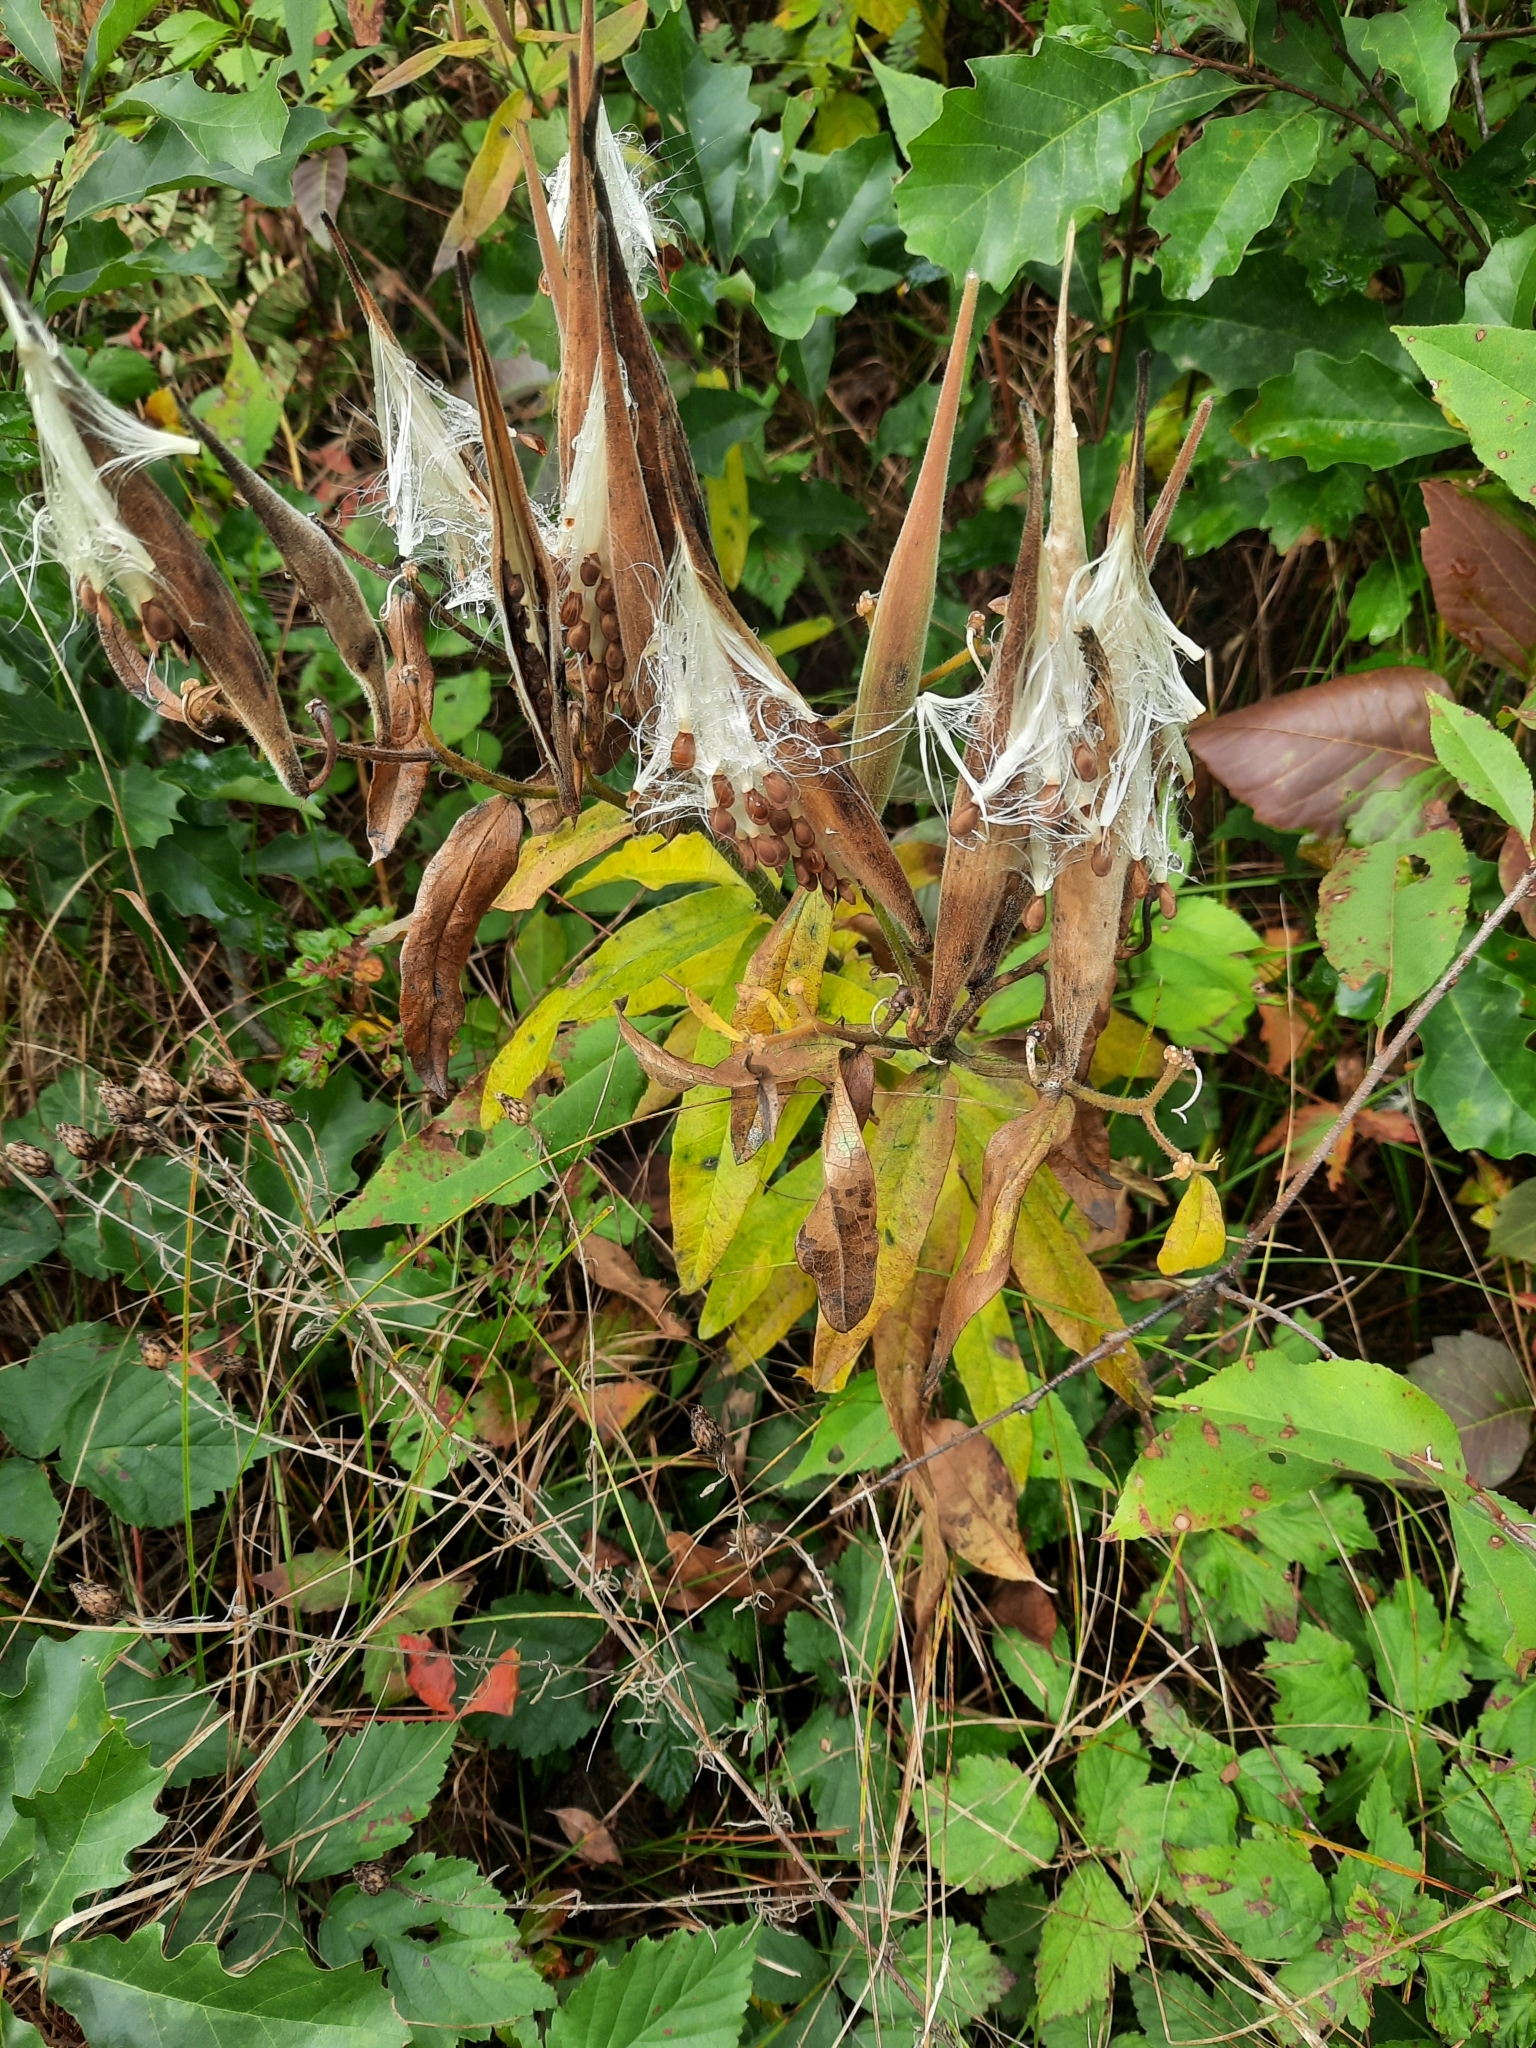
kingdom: Plantae
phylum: Tracheophyta
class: Magnoliopsida
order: Gentianales
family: Apocynaceae
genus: Asclepias
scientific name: Asclepias tuberosa
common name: Butterfly milkweed
